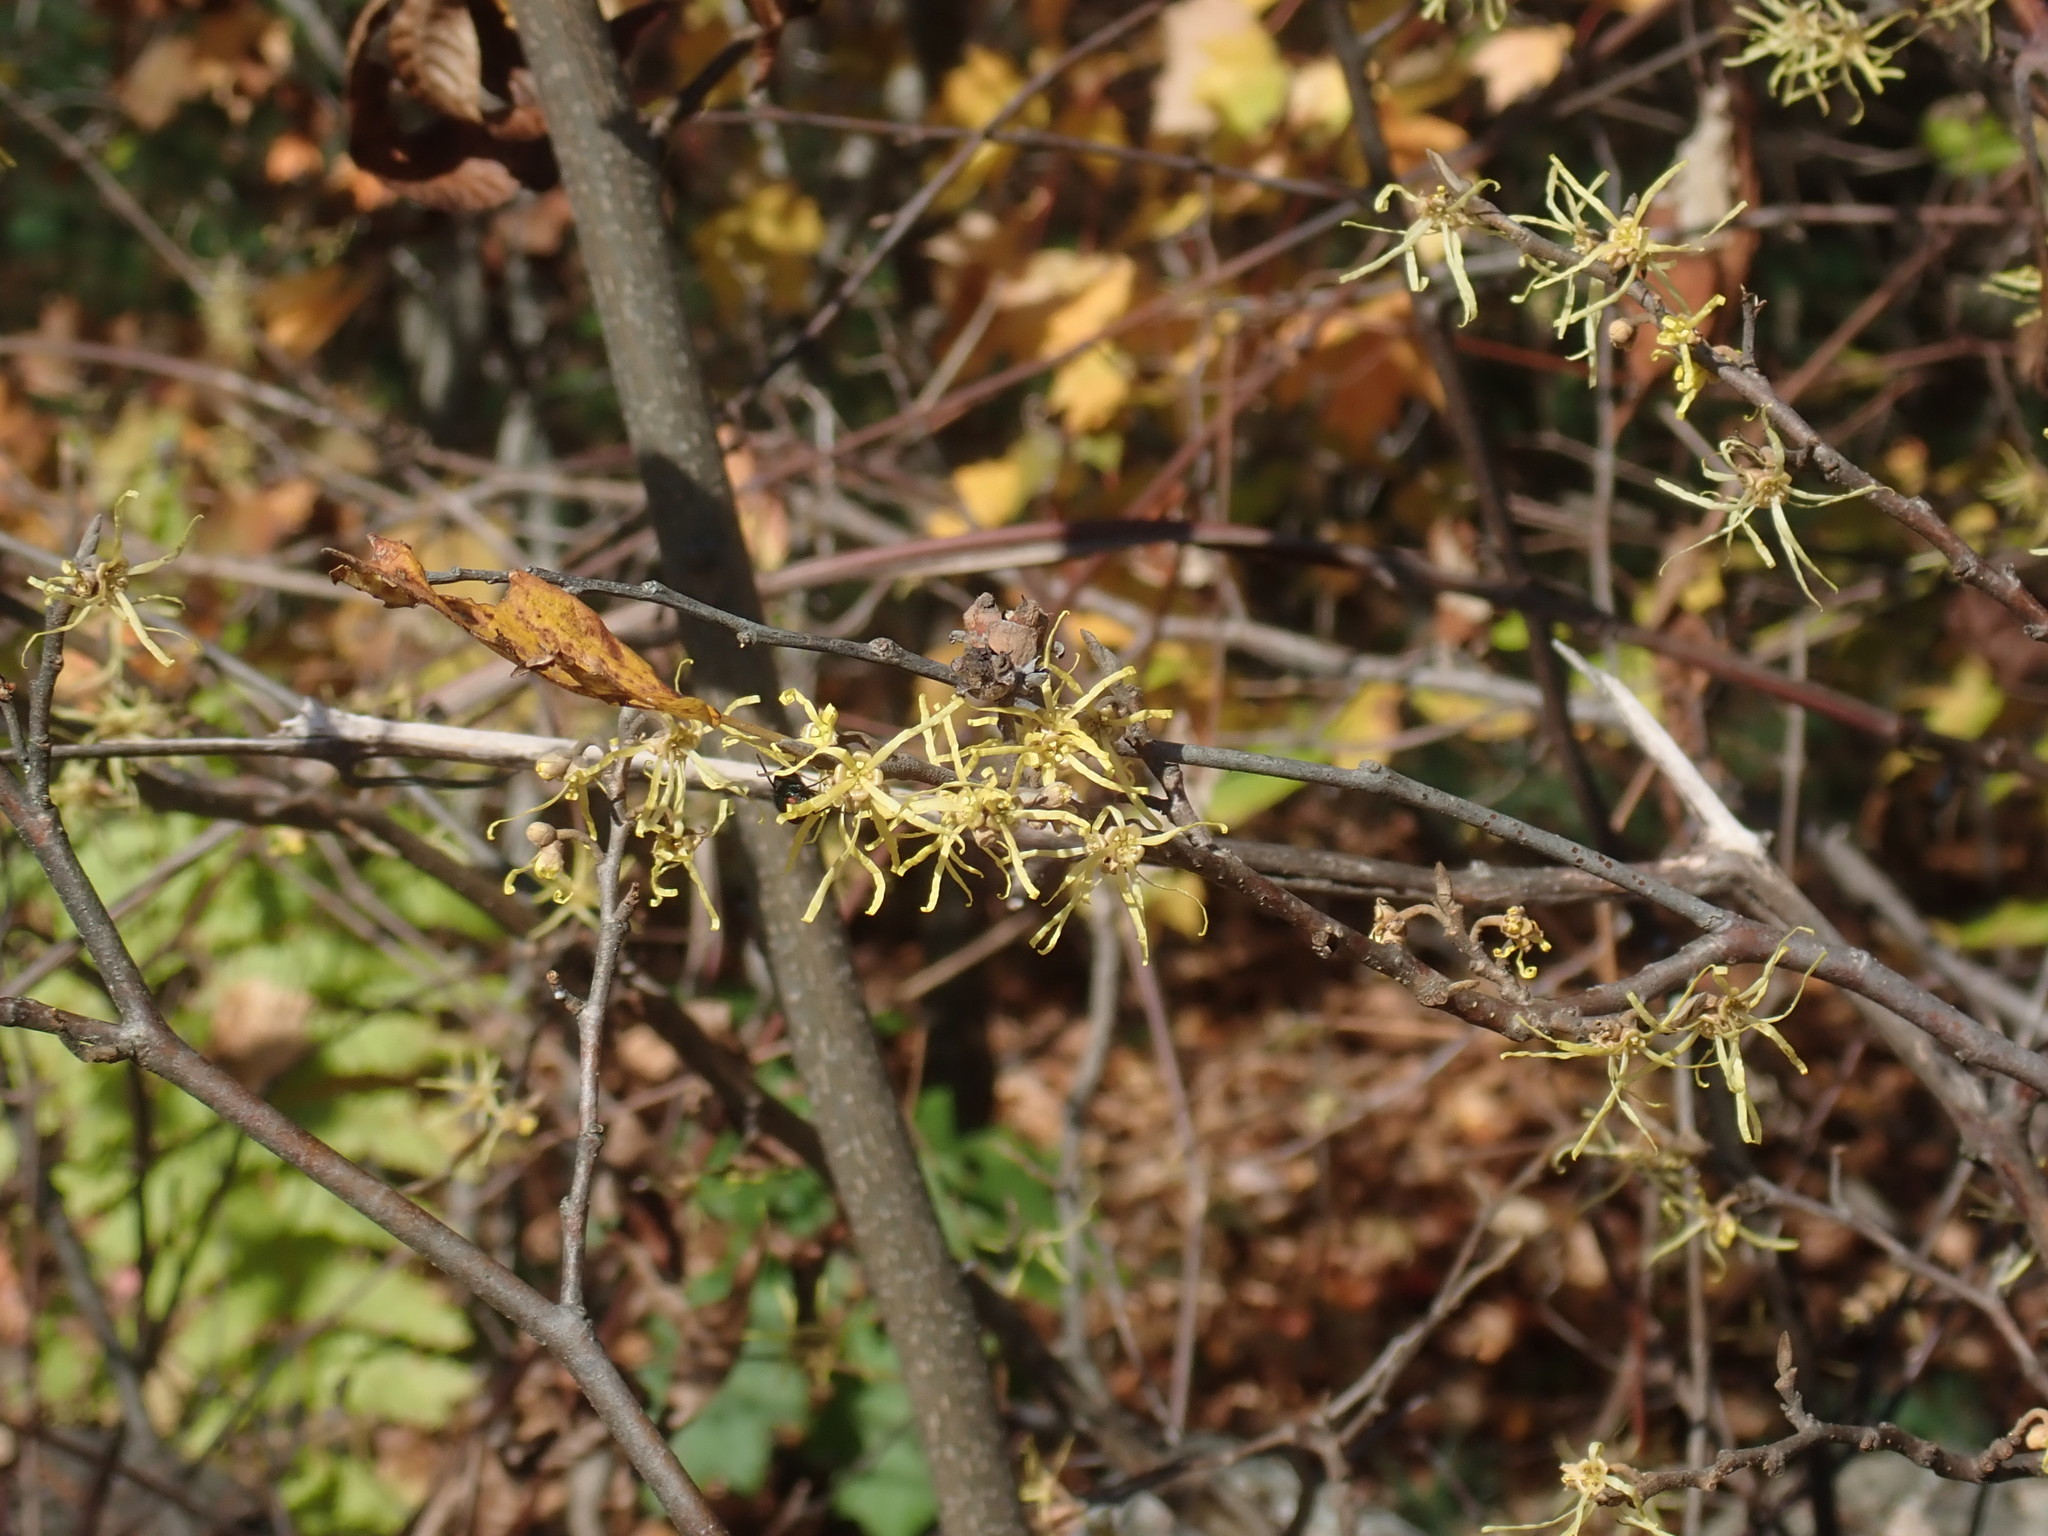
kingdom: Plantae
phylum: Tracheophyta
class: Magnoliopsida
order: Saxifragales
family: Hamamelidaceae
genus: Hamamelis
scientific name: Hamamelis virginiana
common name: Witch-hazel
